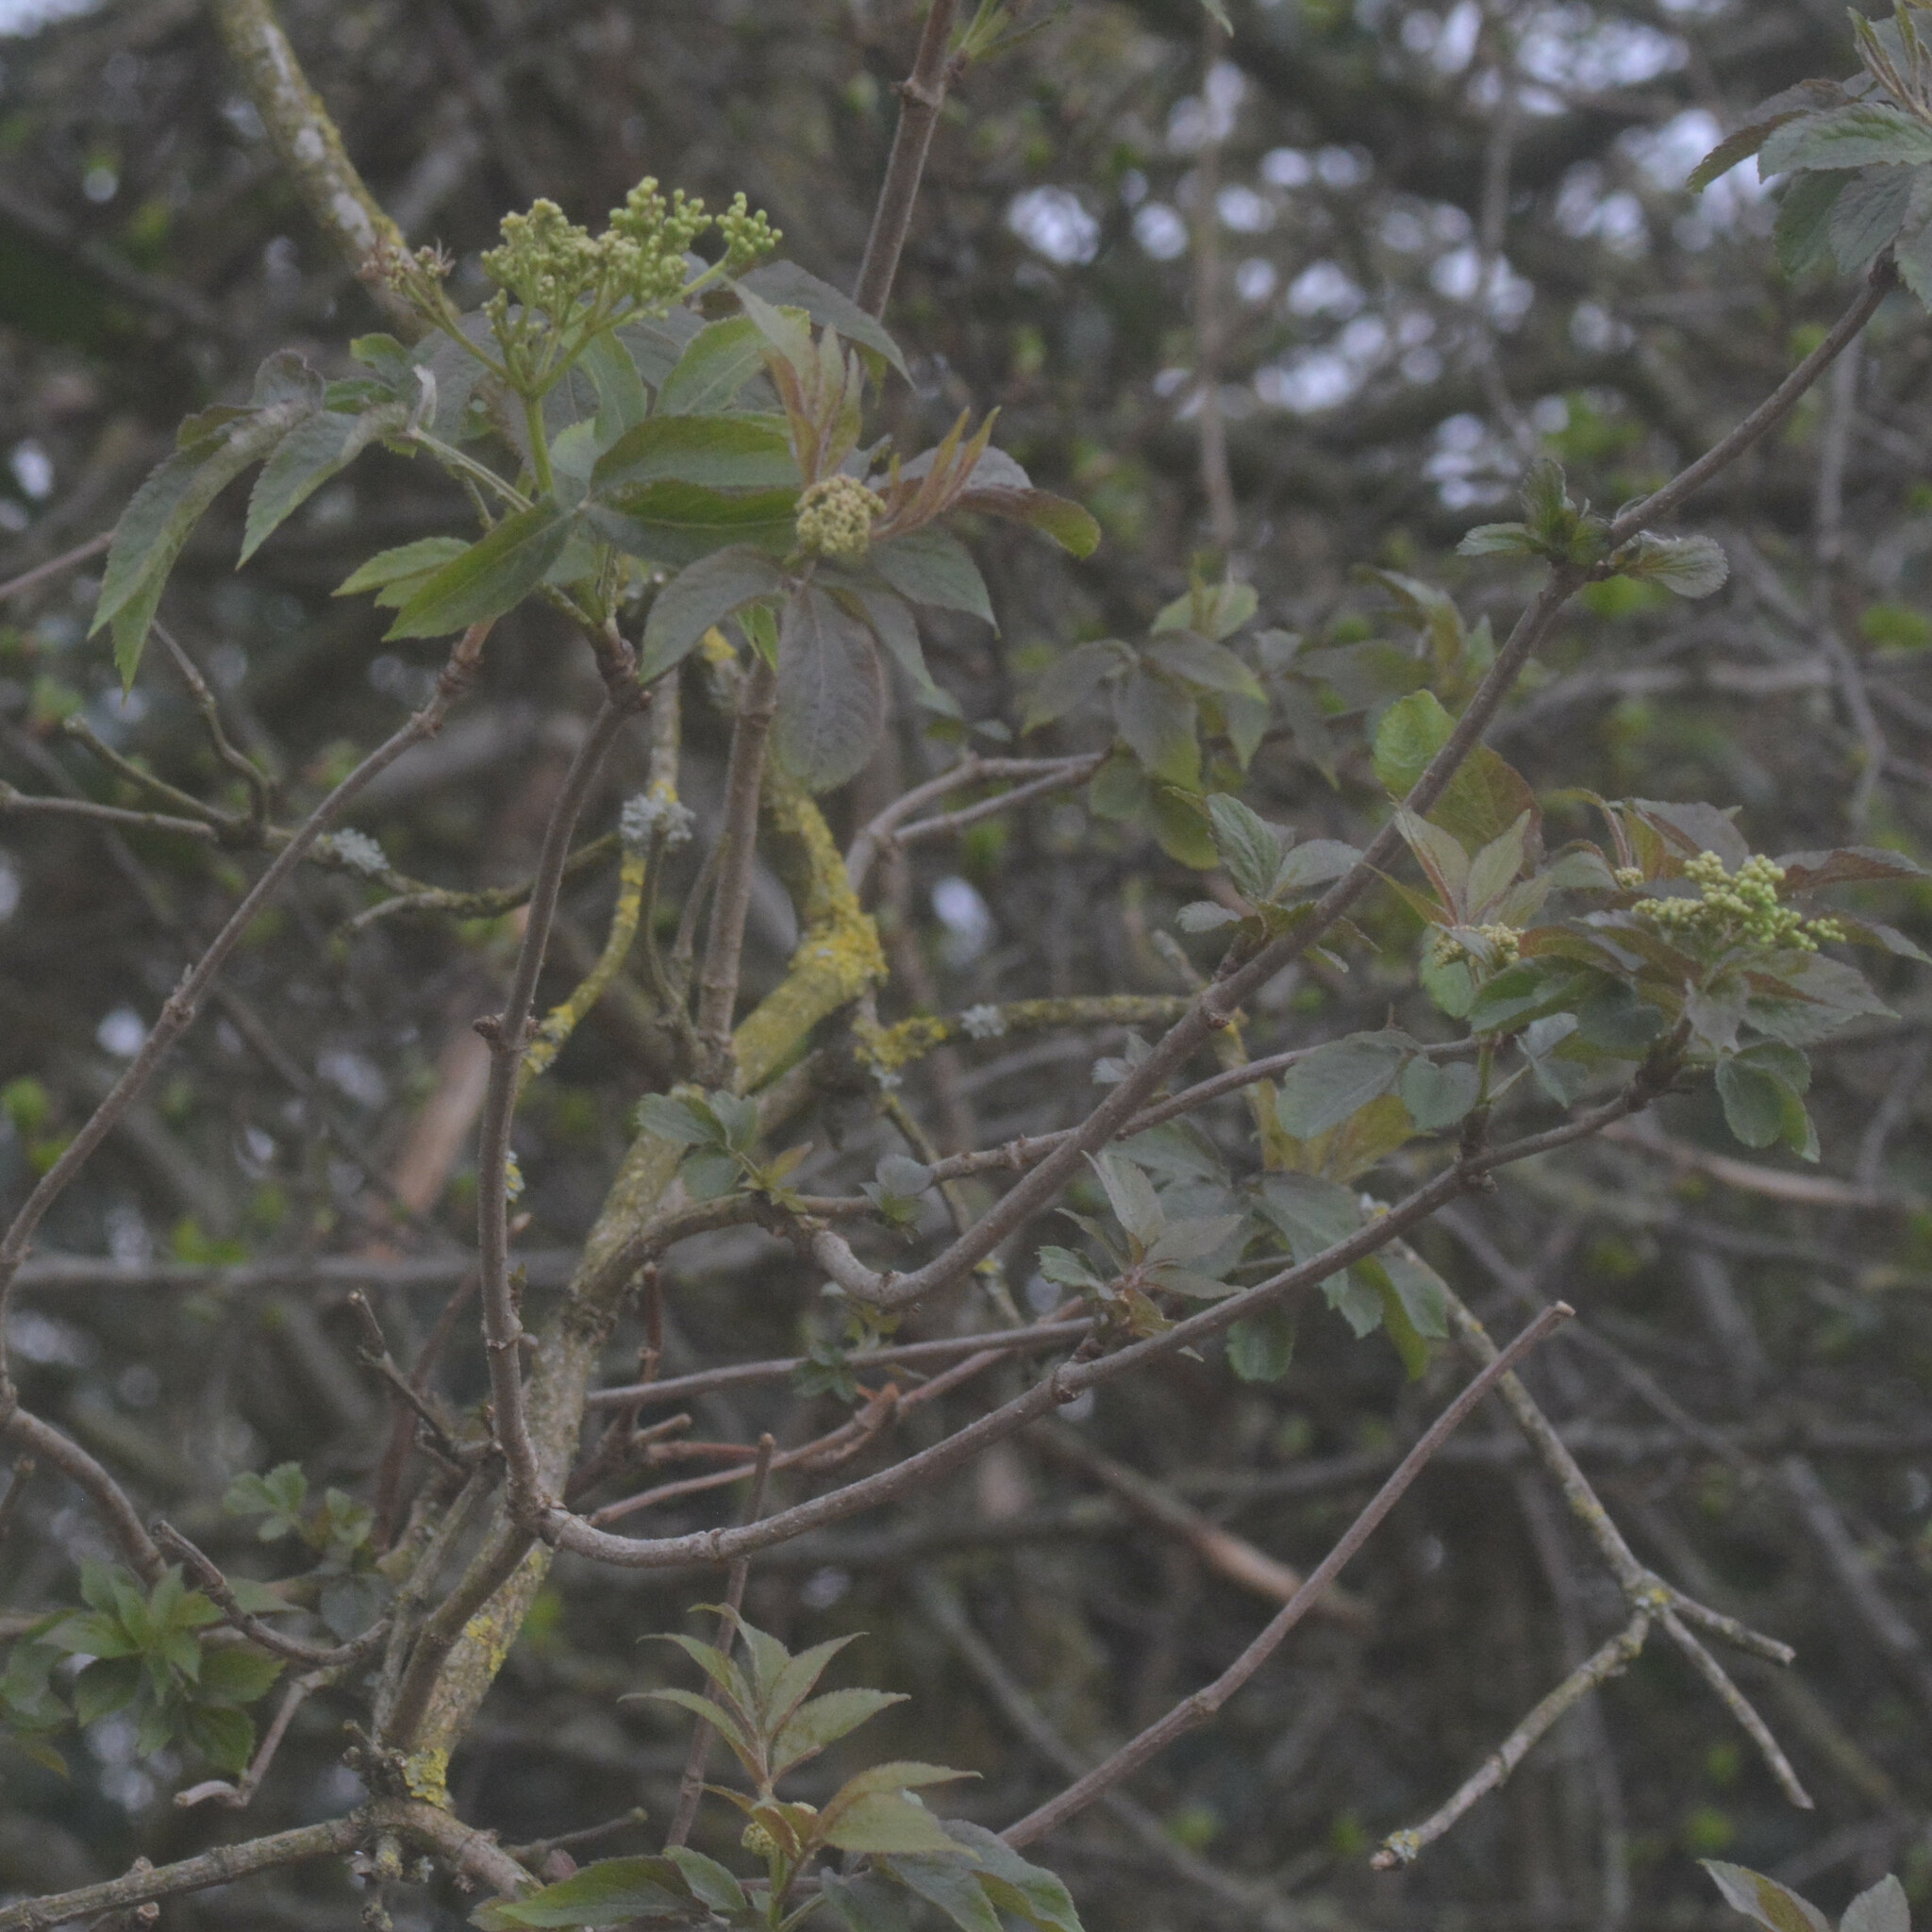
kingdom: Plantae
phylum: Tracheophyta
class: Magnoliopsida
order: Dipsacales
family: Viburnaceae
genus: Sambucus
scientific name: Sambucus nigra
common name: Elder
